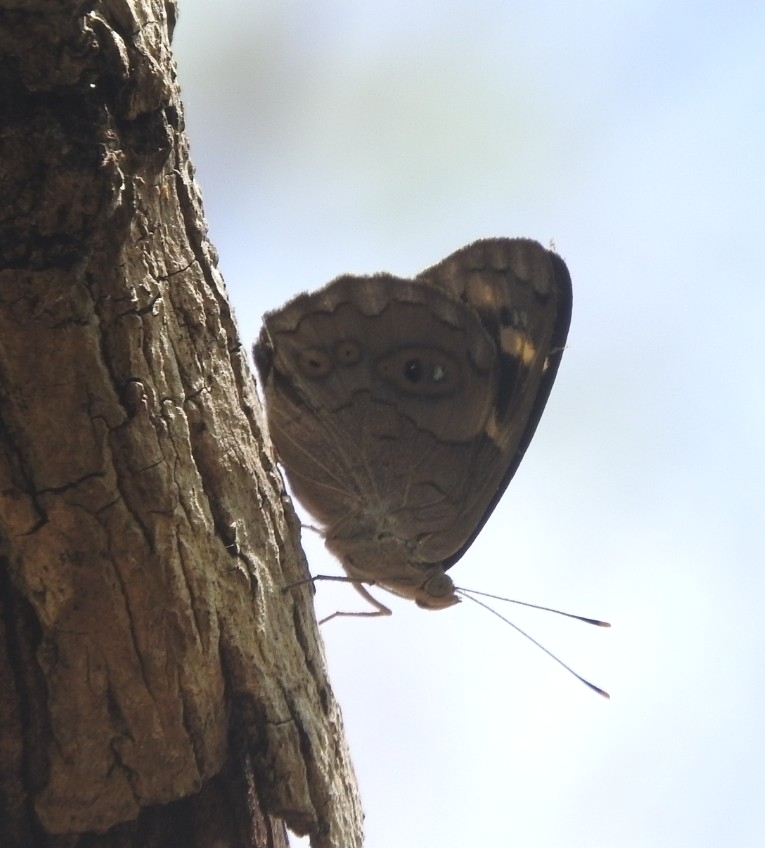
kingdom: Animalia
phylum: Arthropoda
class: Insecta
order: Lepidoptera
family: Nymphalidae
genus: Eunica
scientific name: Eunica monima
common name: Dingy purplewing
